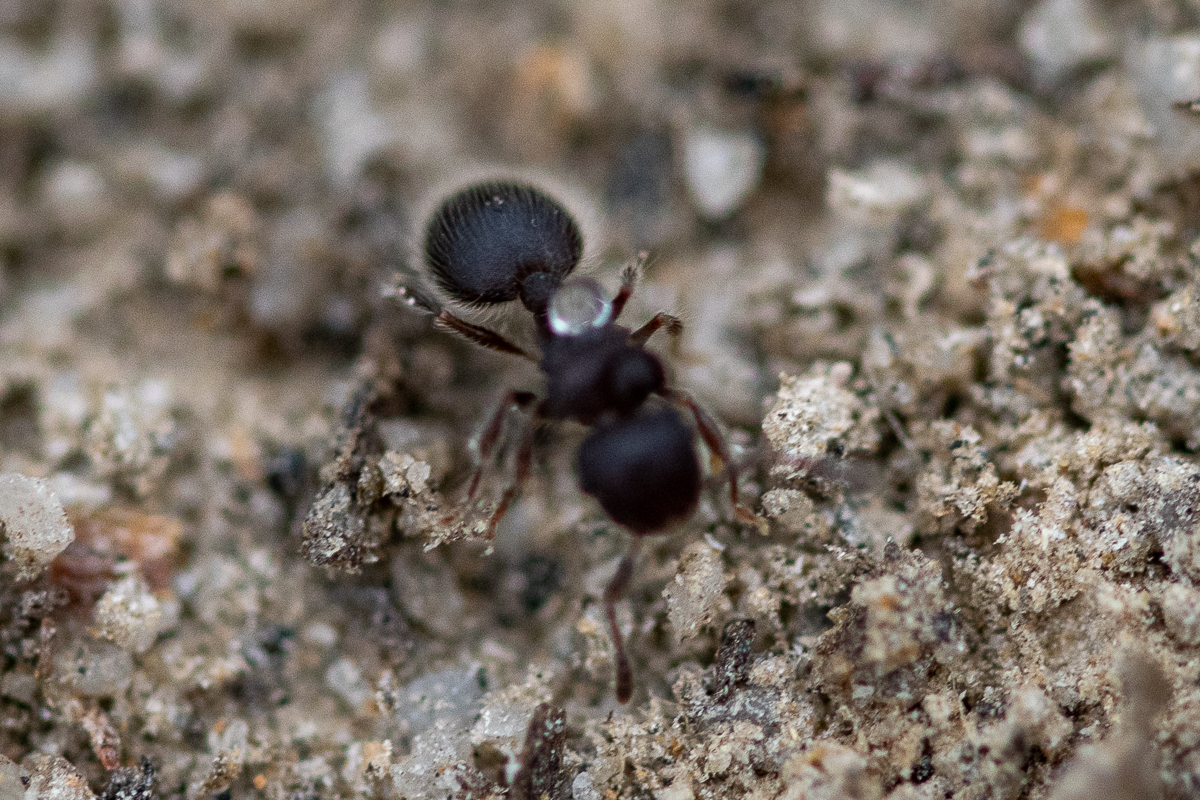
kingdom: Animalia
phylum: Arthropoda
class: Insecta
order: Hymenoptera
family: Formicidae
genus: Meranoplus
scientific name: Meranoplus peringueyi
